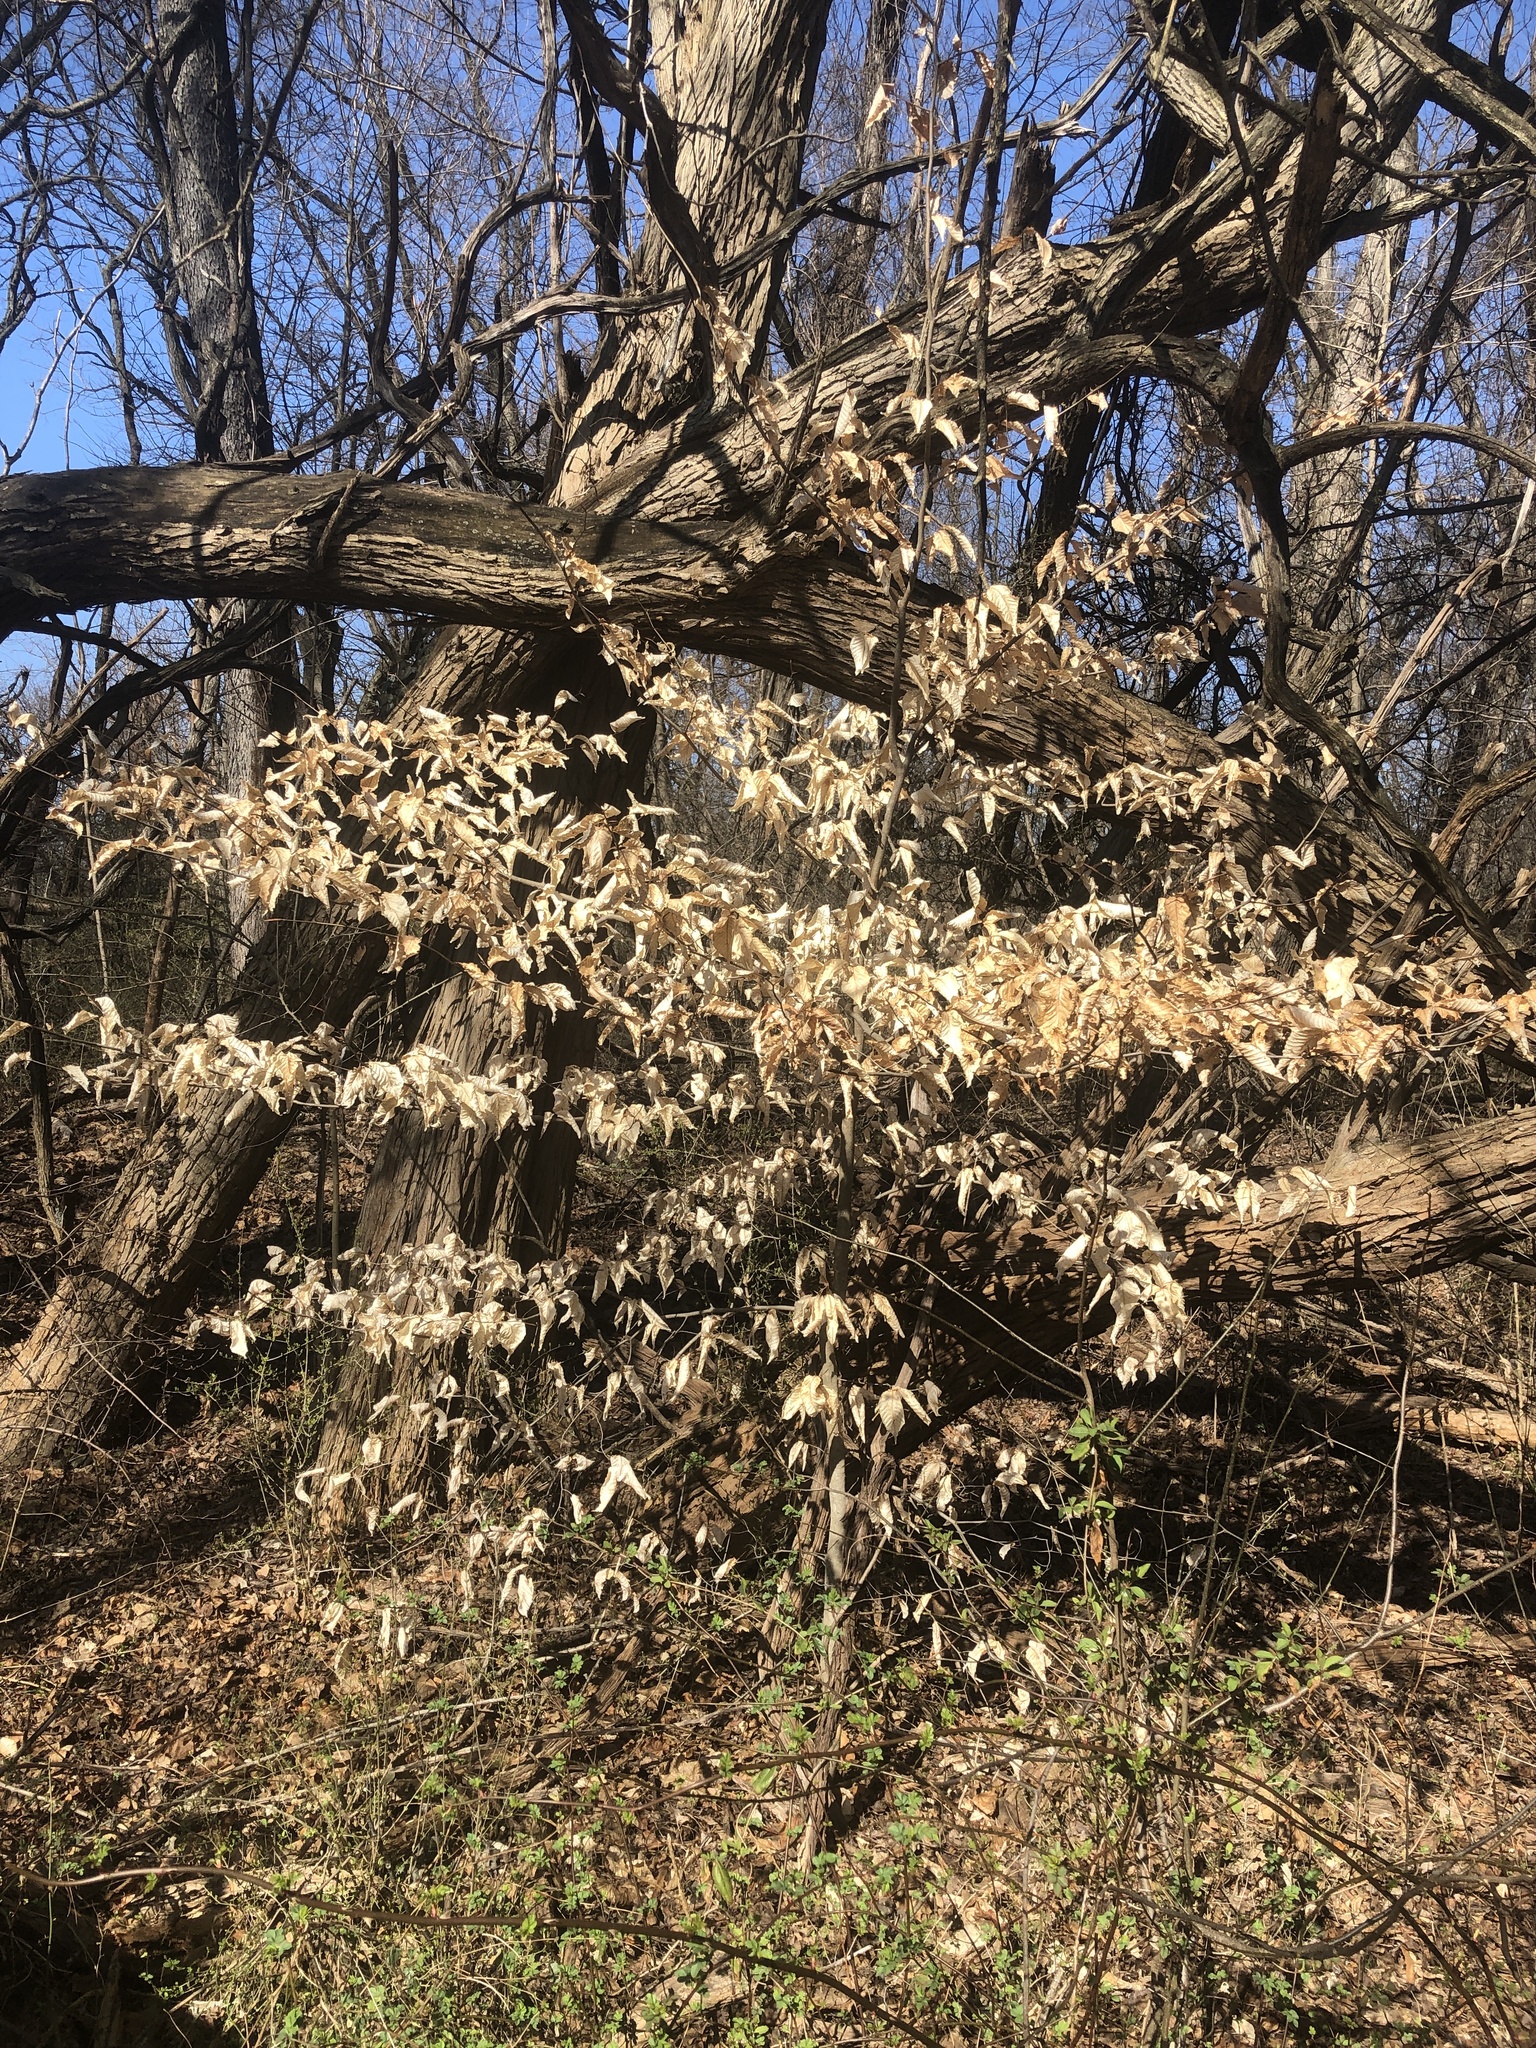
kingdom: Plantae
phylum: Tracheophyta
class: Magnoliopsida
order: Fagales
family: Fagaceae
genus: Fagus
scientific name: Fagus grandifolia
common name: American beech
